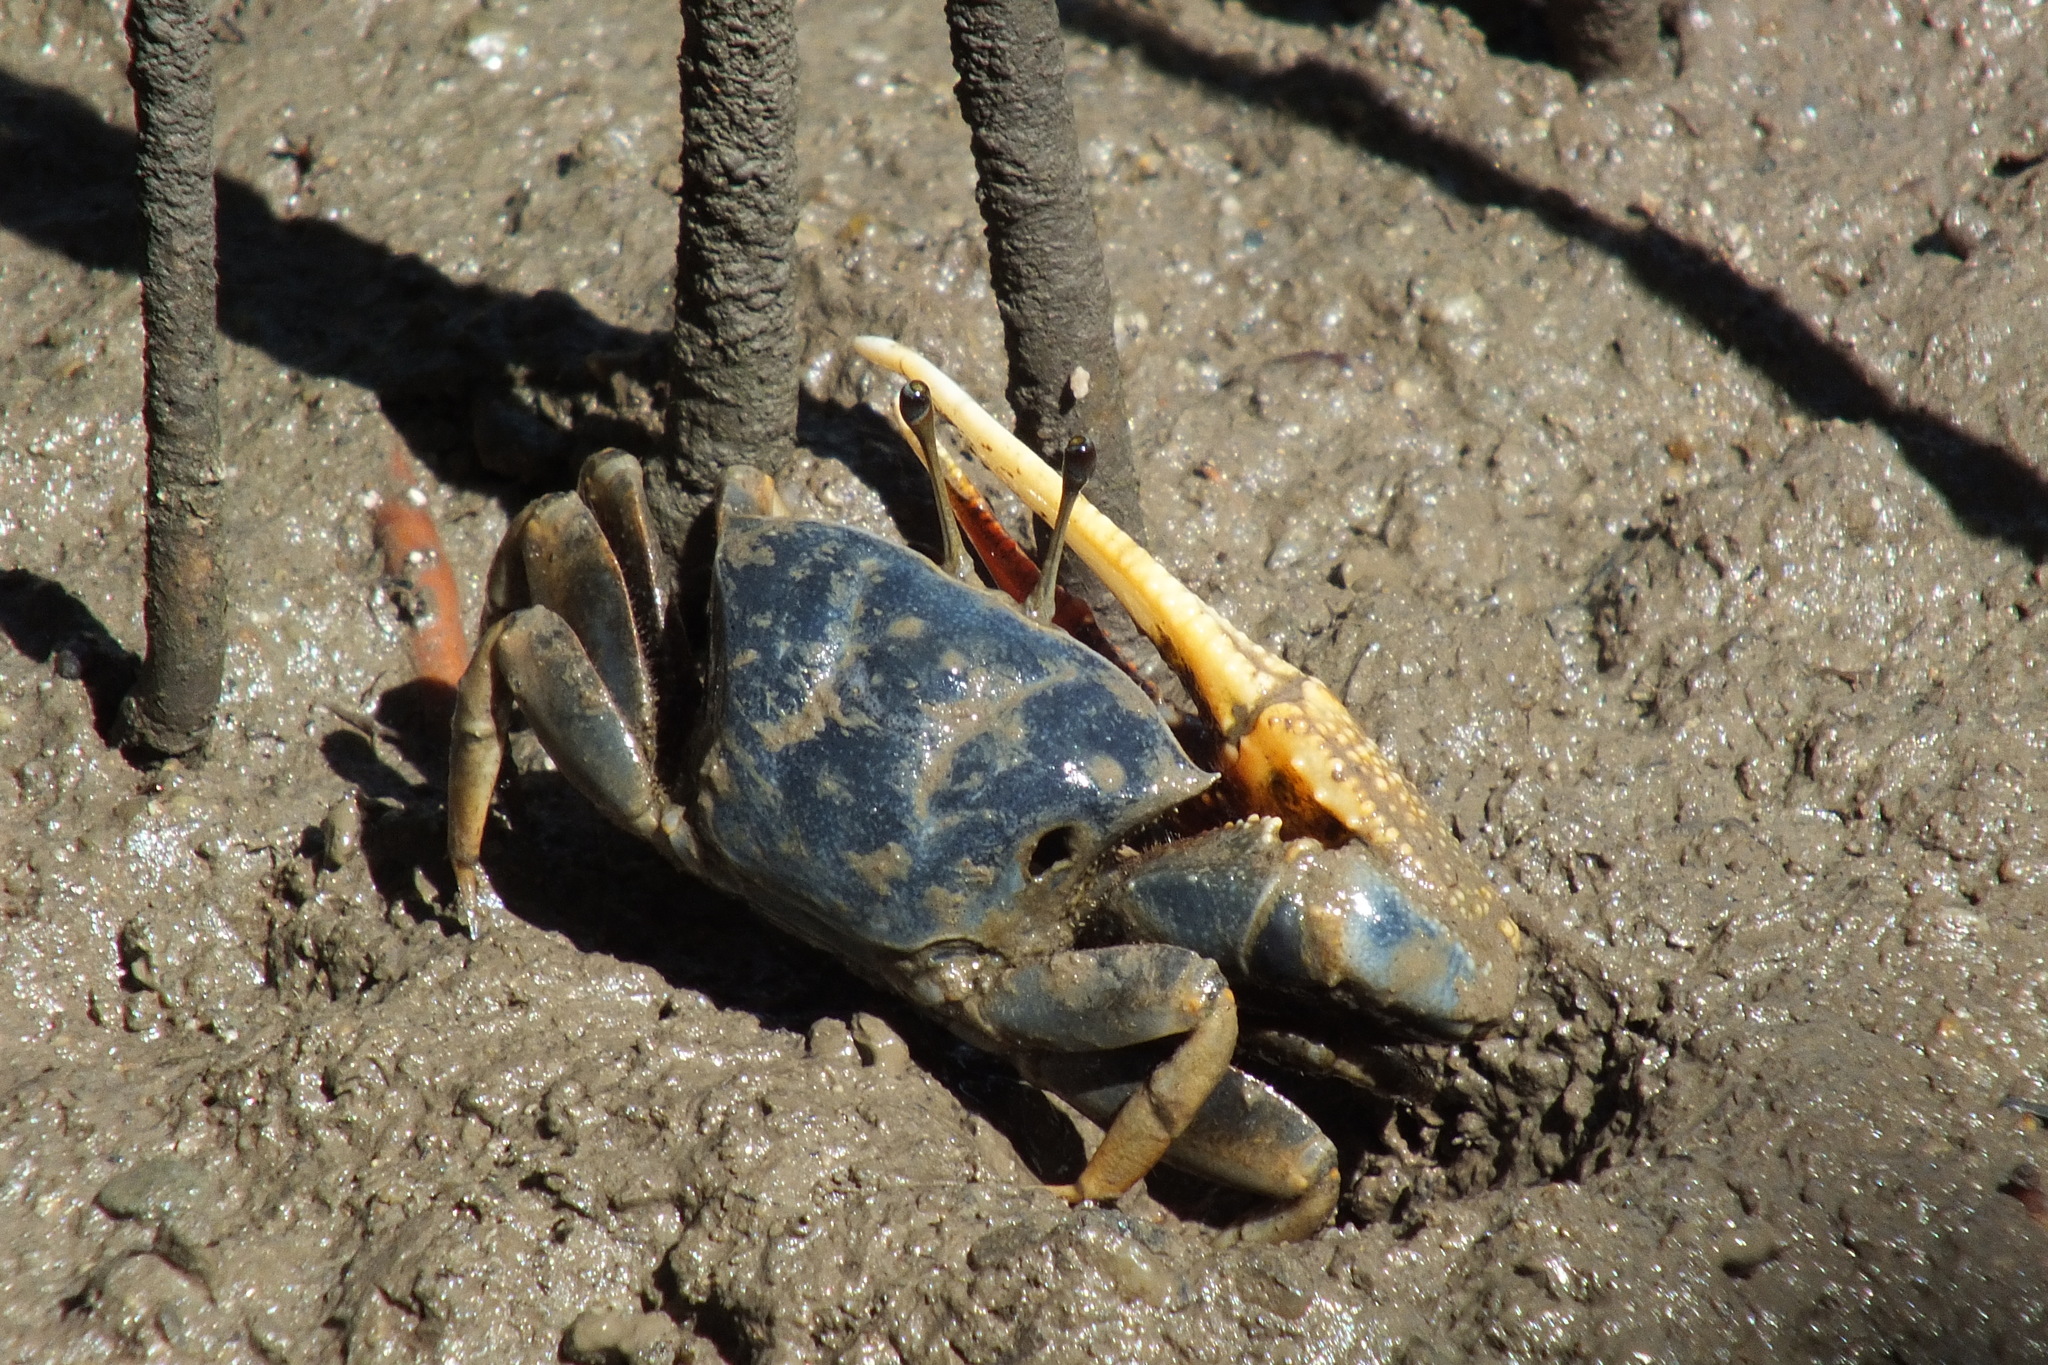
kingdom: Animalia
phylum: Arthropoda
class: Malacostraca
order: Decapoda
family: Ocypodidae
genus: Tubuca
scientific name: Tubuca dussumieri
